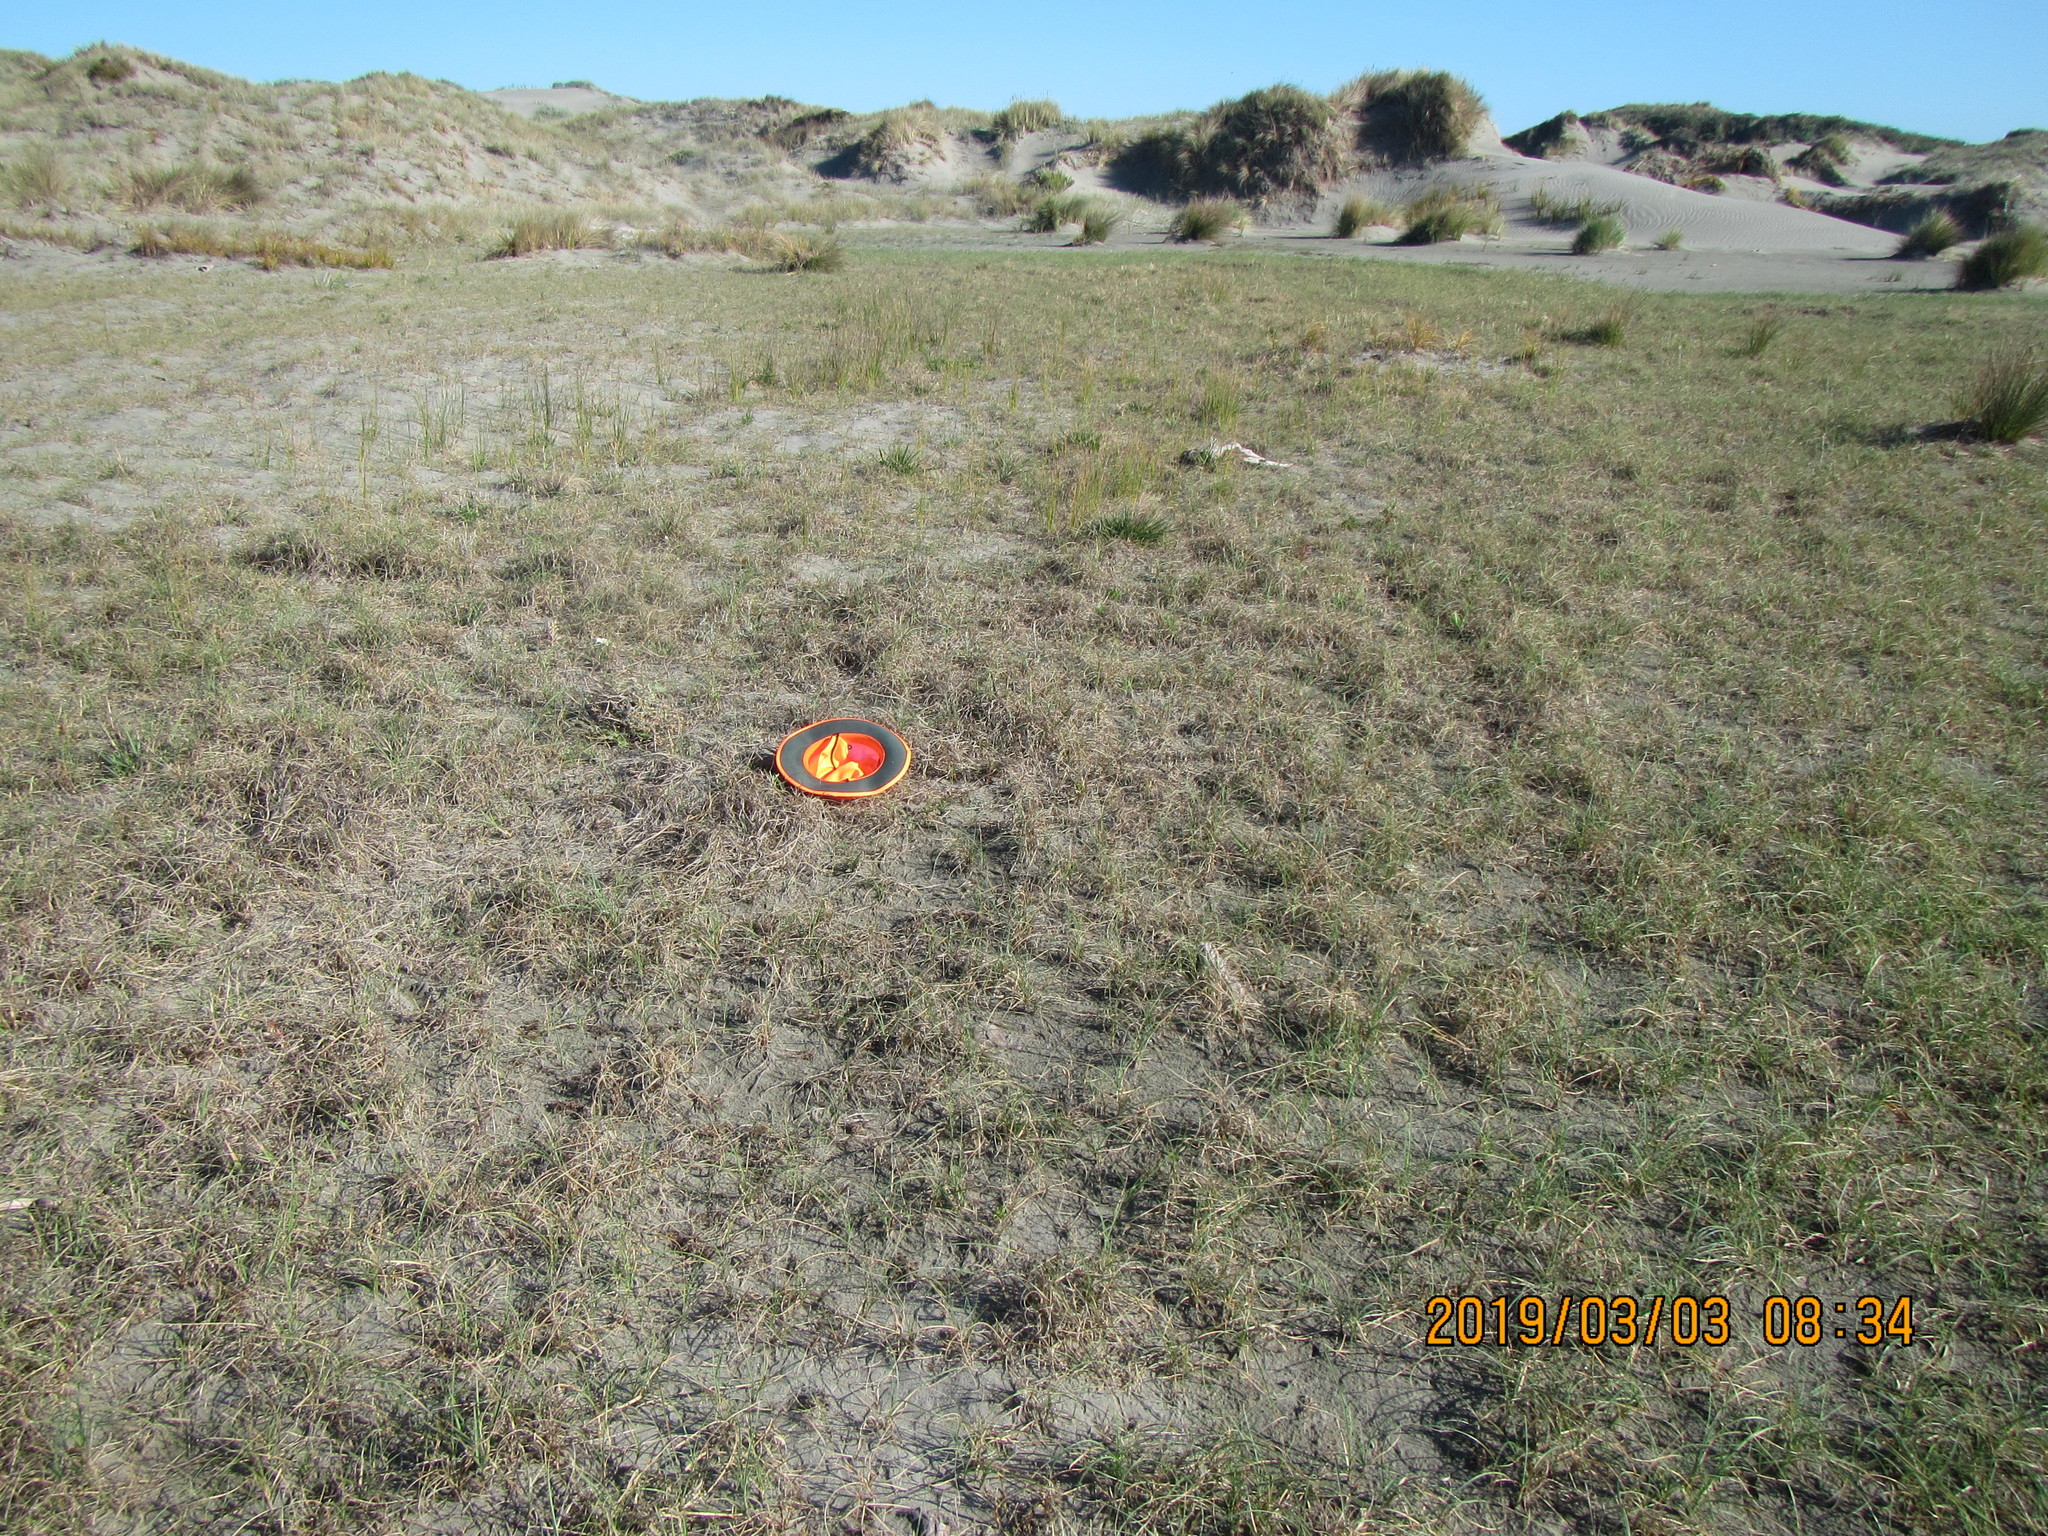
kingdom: Plantae
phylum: Tracheophyta
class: Magnoliopsida
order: Asterales
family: Campanulaceae
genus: Lobelia
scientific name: Lobelia anceps
